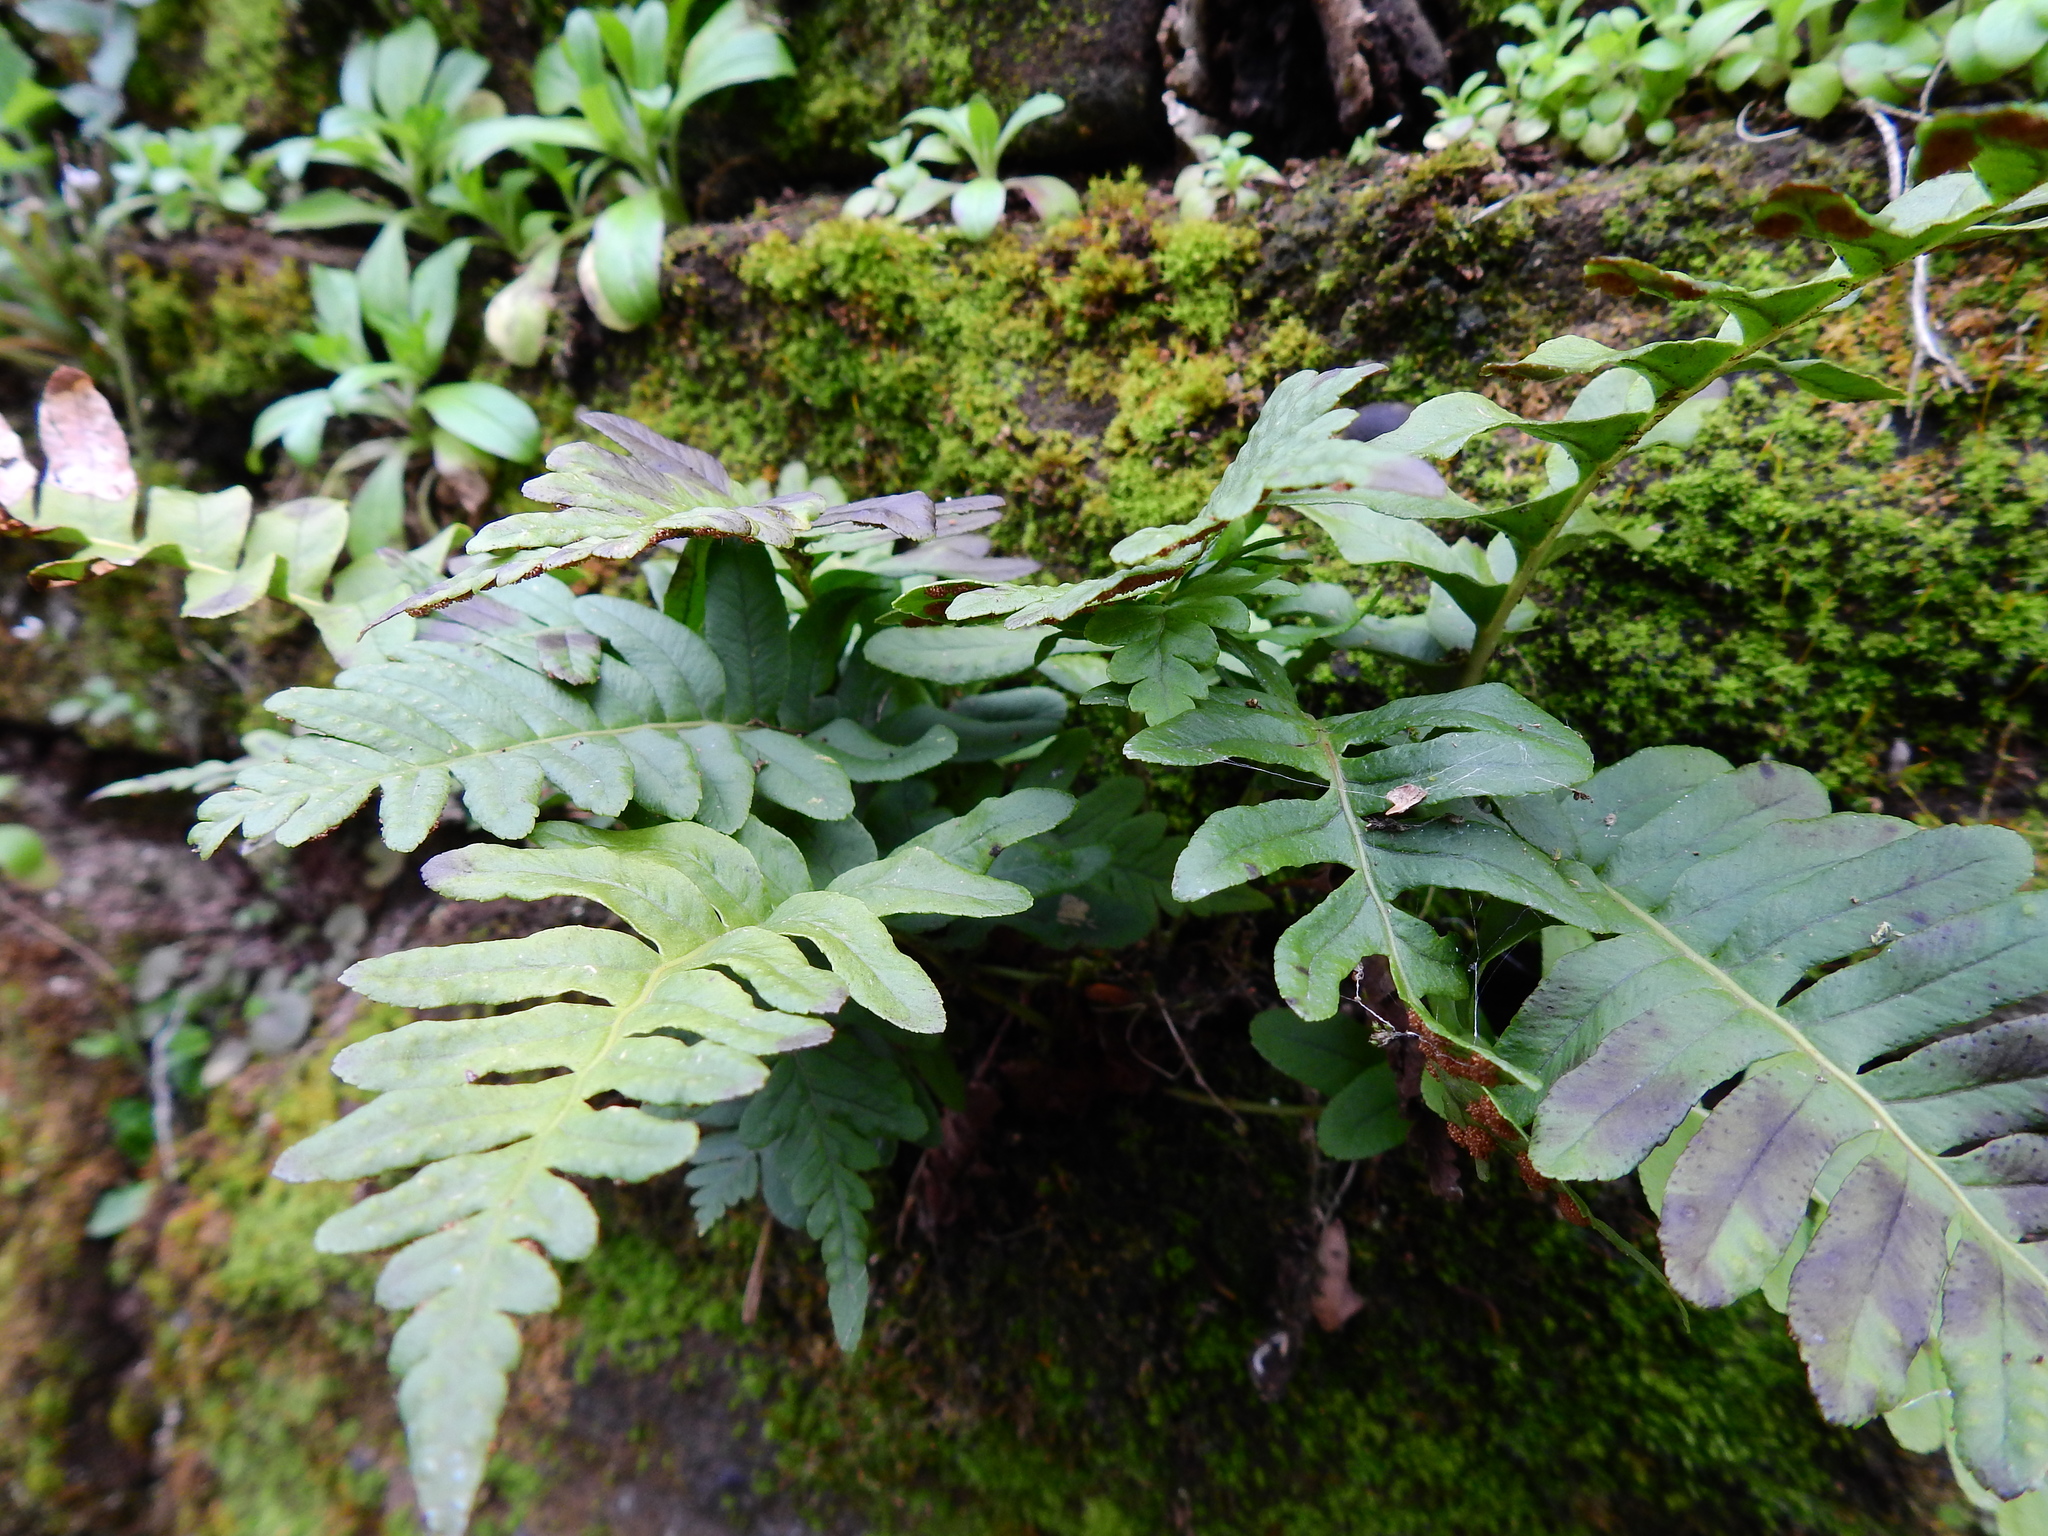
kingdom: Plantae
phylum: Tracheophyta
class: Polypodiopsida
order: Polypodiales
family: Polypodiaceae
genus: Polypodium
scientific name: Polypodium vulgare
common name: Common polypody
